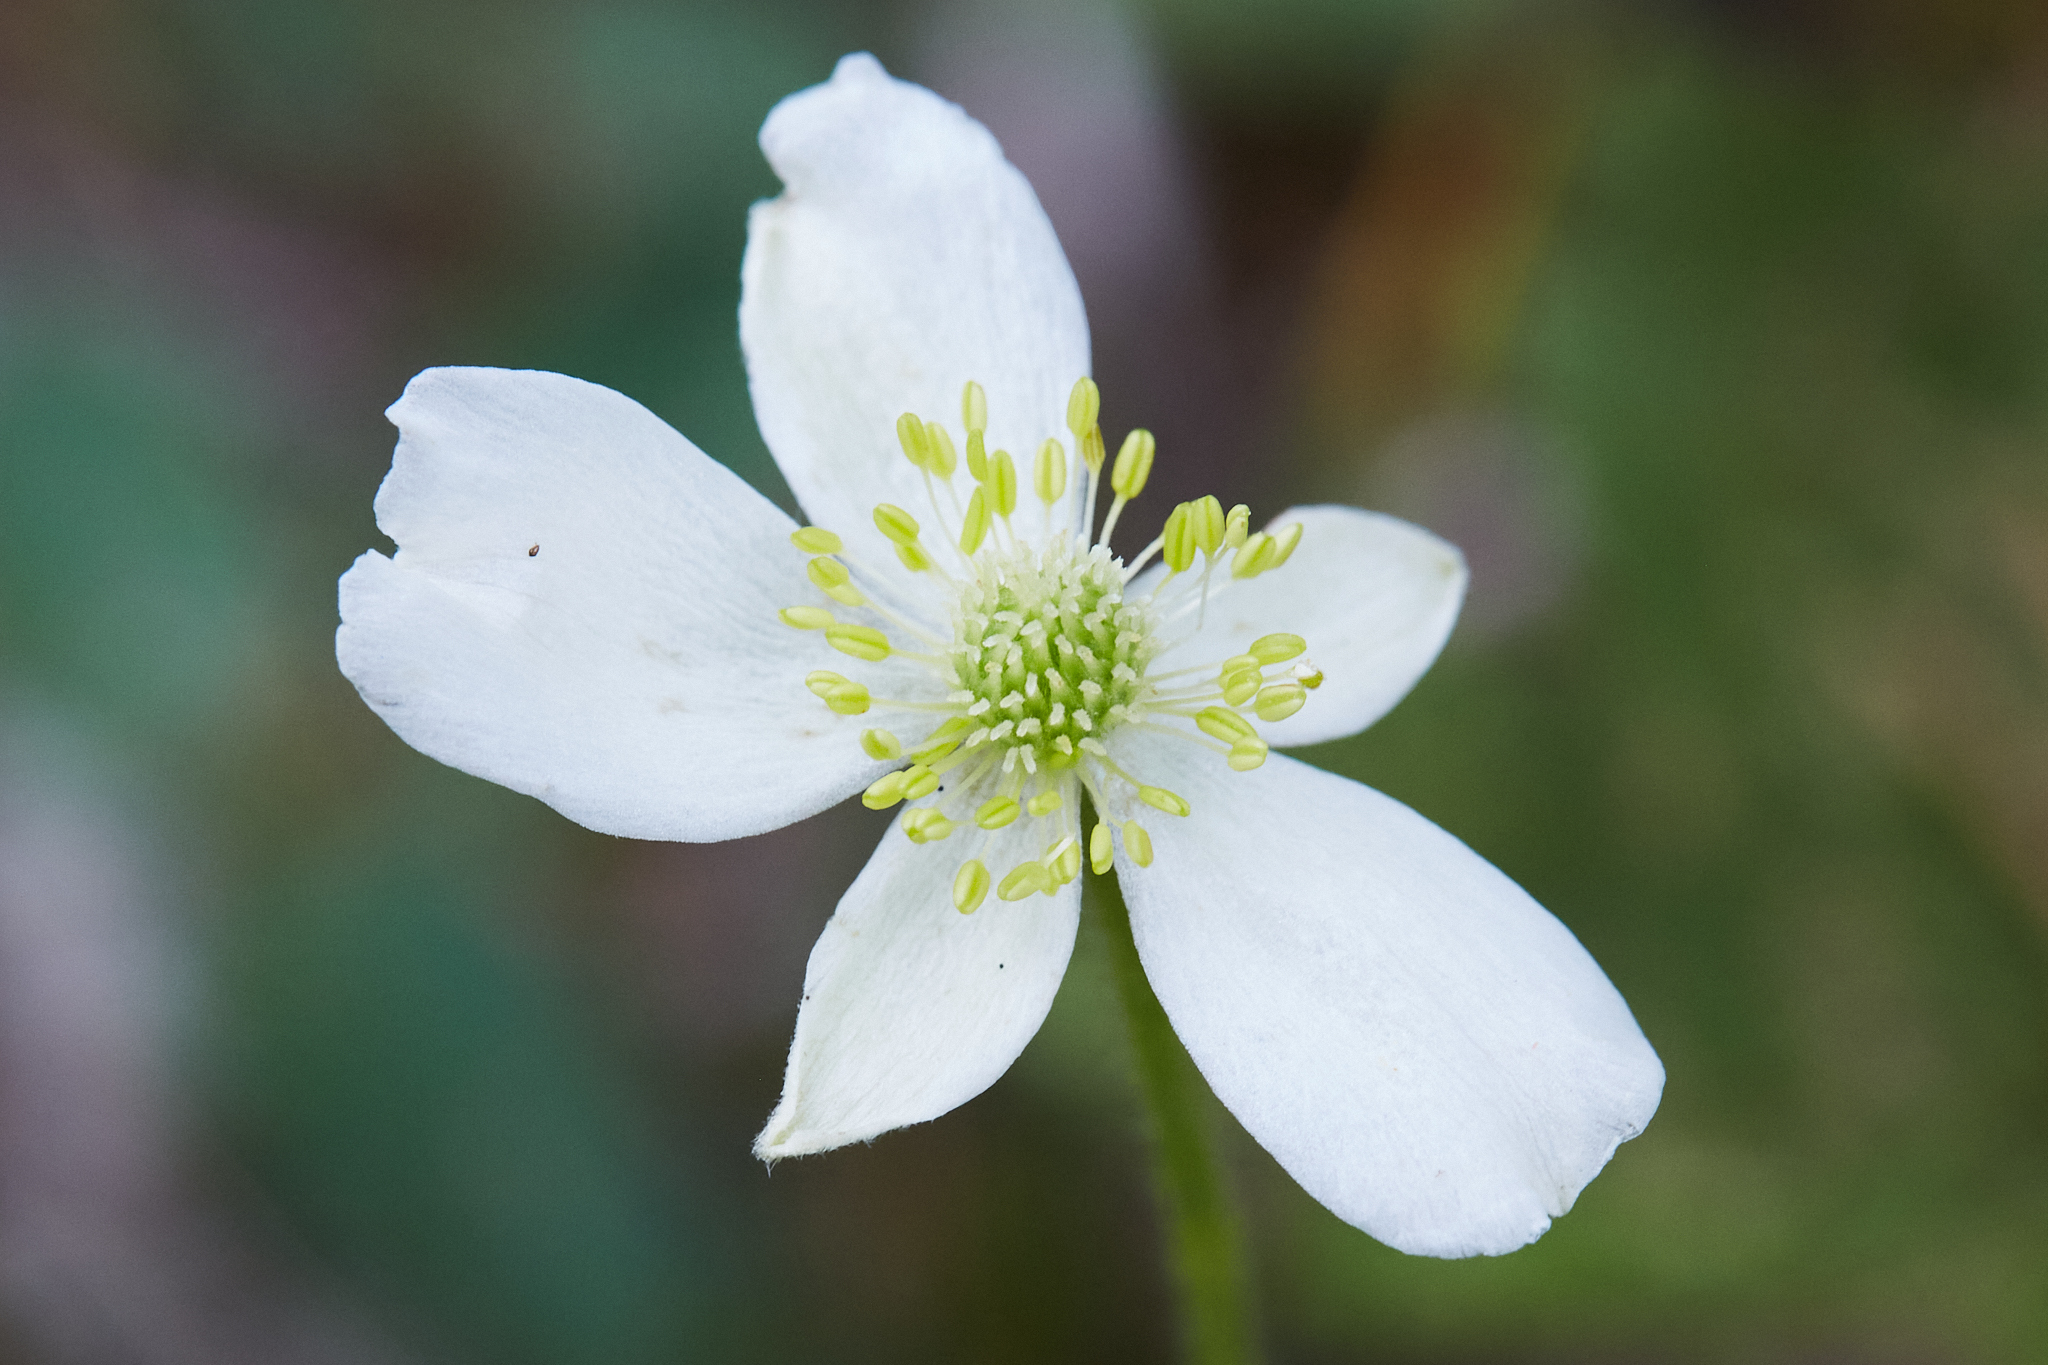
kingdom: Plantae
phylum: Tracheophyta
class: Magnoliopsida
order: Ranunculales
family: Ranunculaceae
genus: Anemonastrum
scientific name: Anemonastrum canadense
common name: Canada anemone
